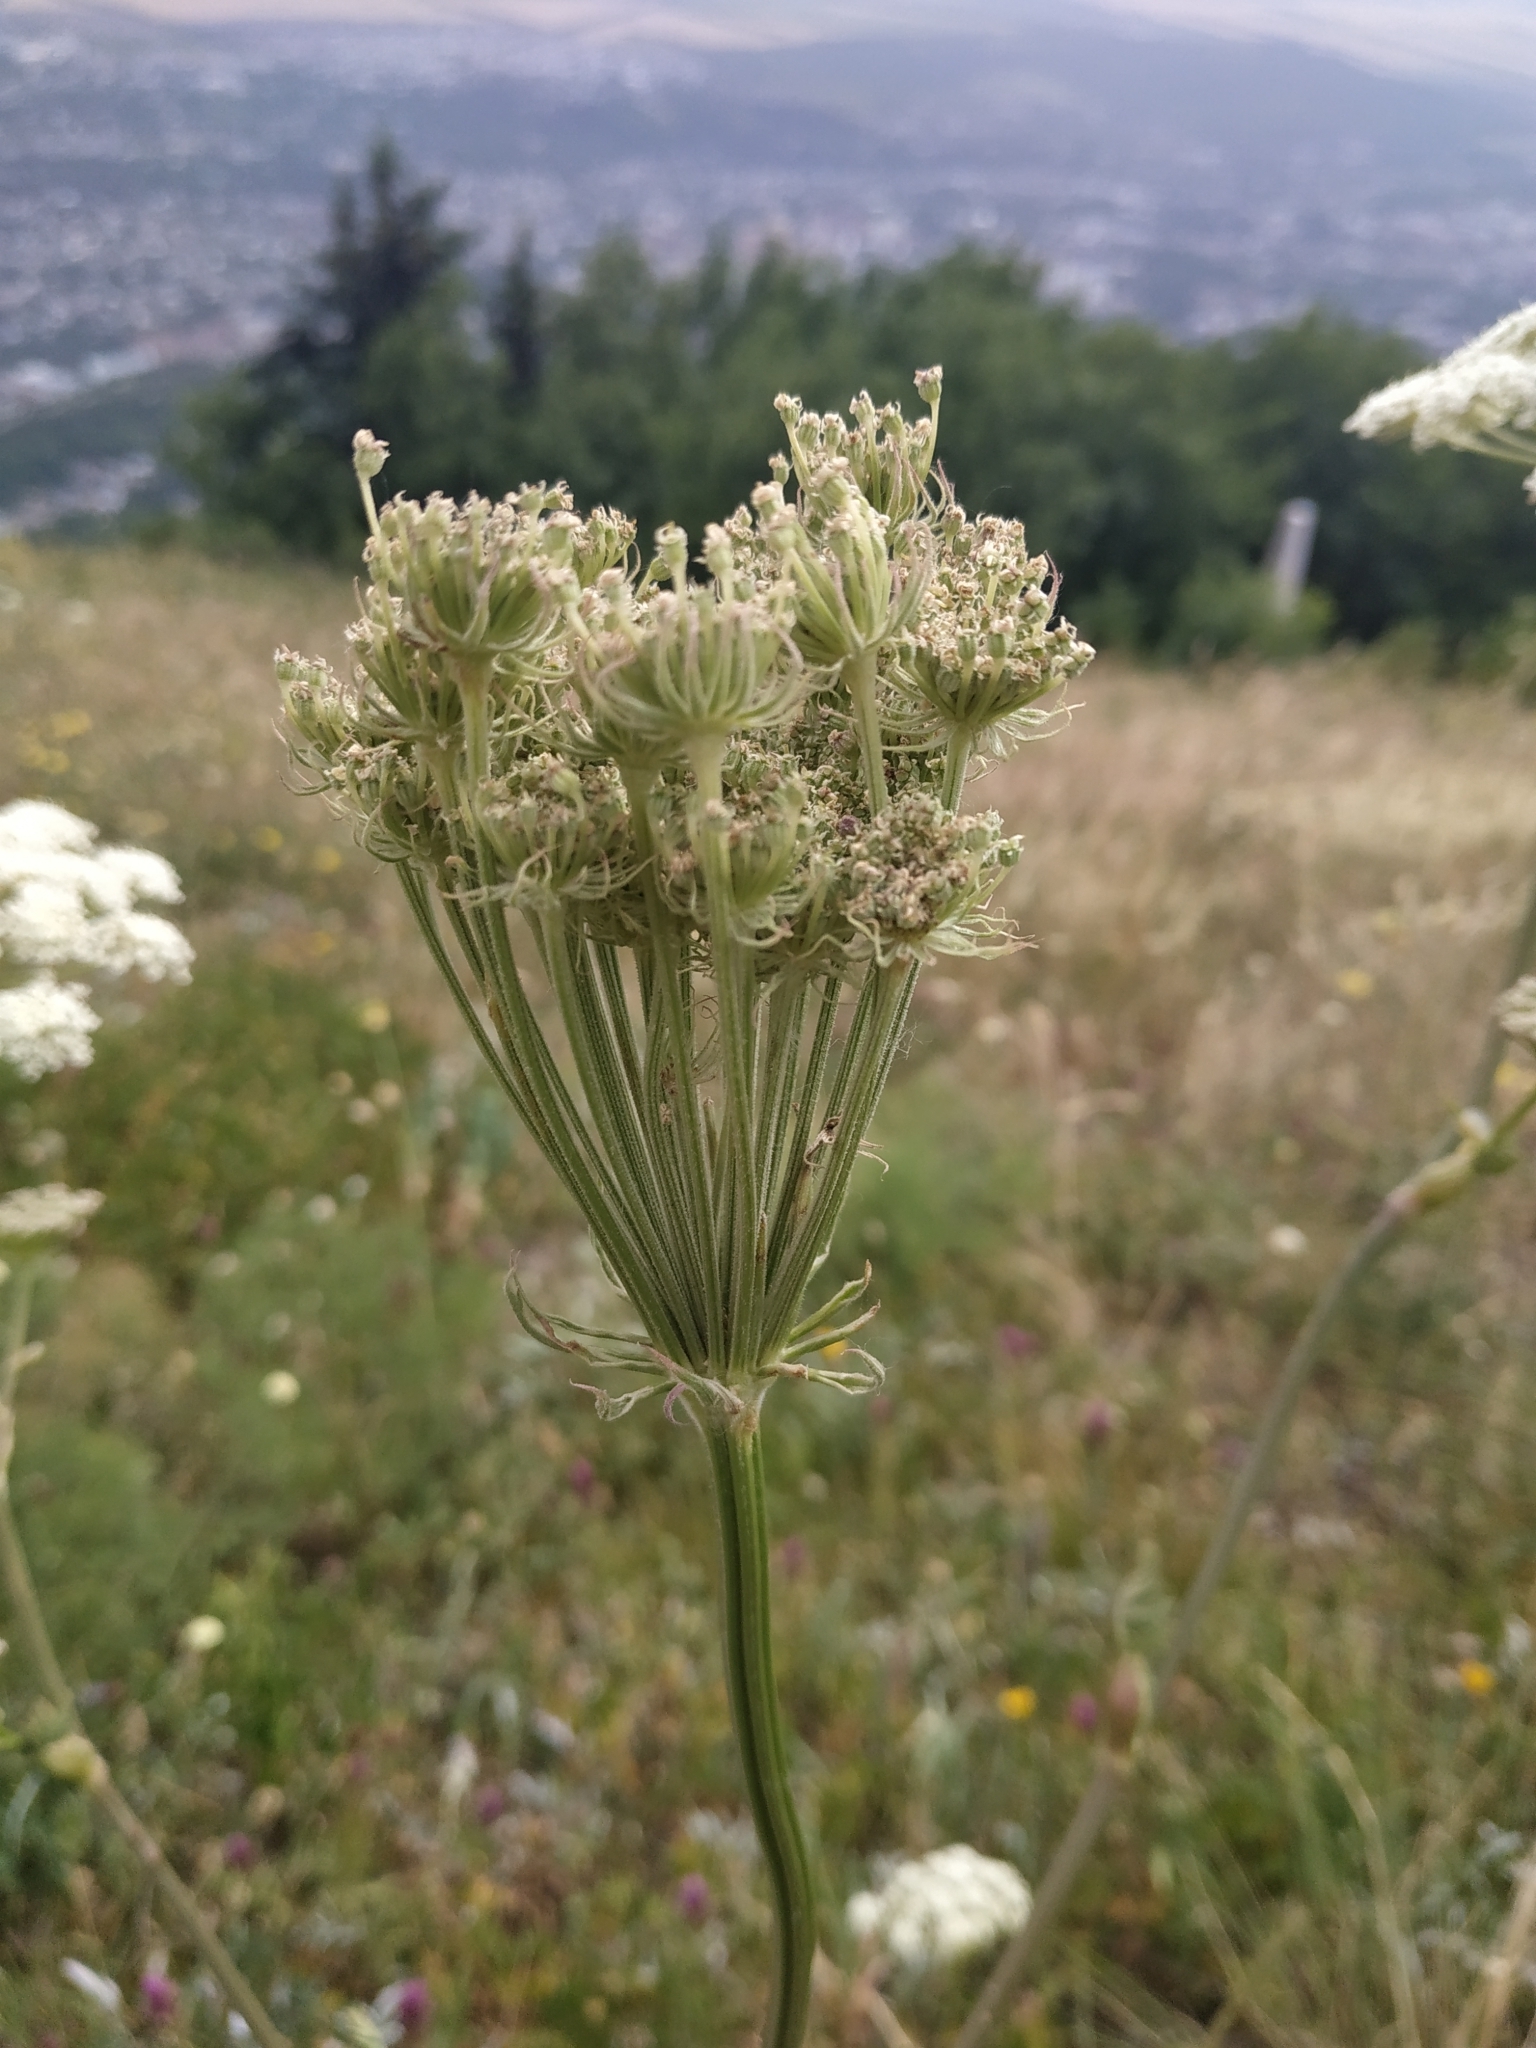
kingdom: Plantae
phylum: Tracheophyta
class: Magnoliopsida
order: Apiales
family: Apiaceae
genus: Seseli
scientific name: Seseli libanotis
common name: Mooncarrot
